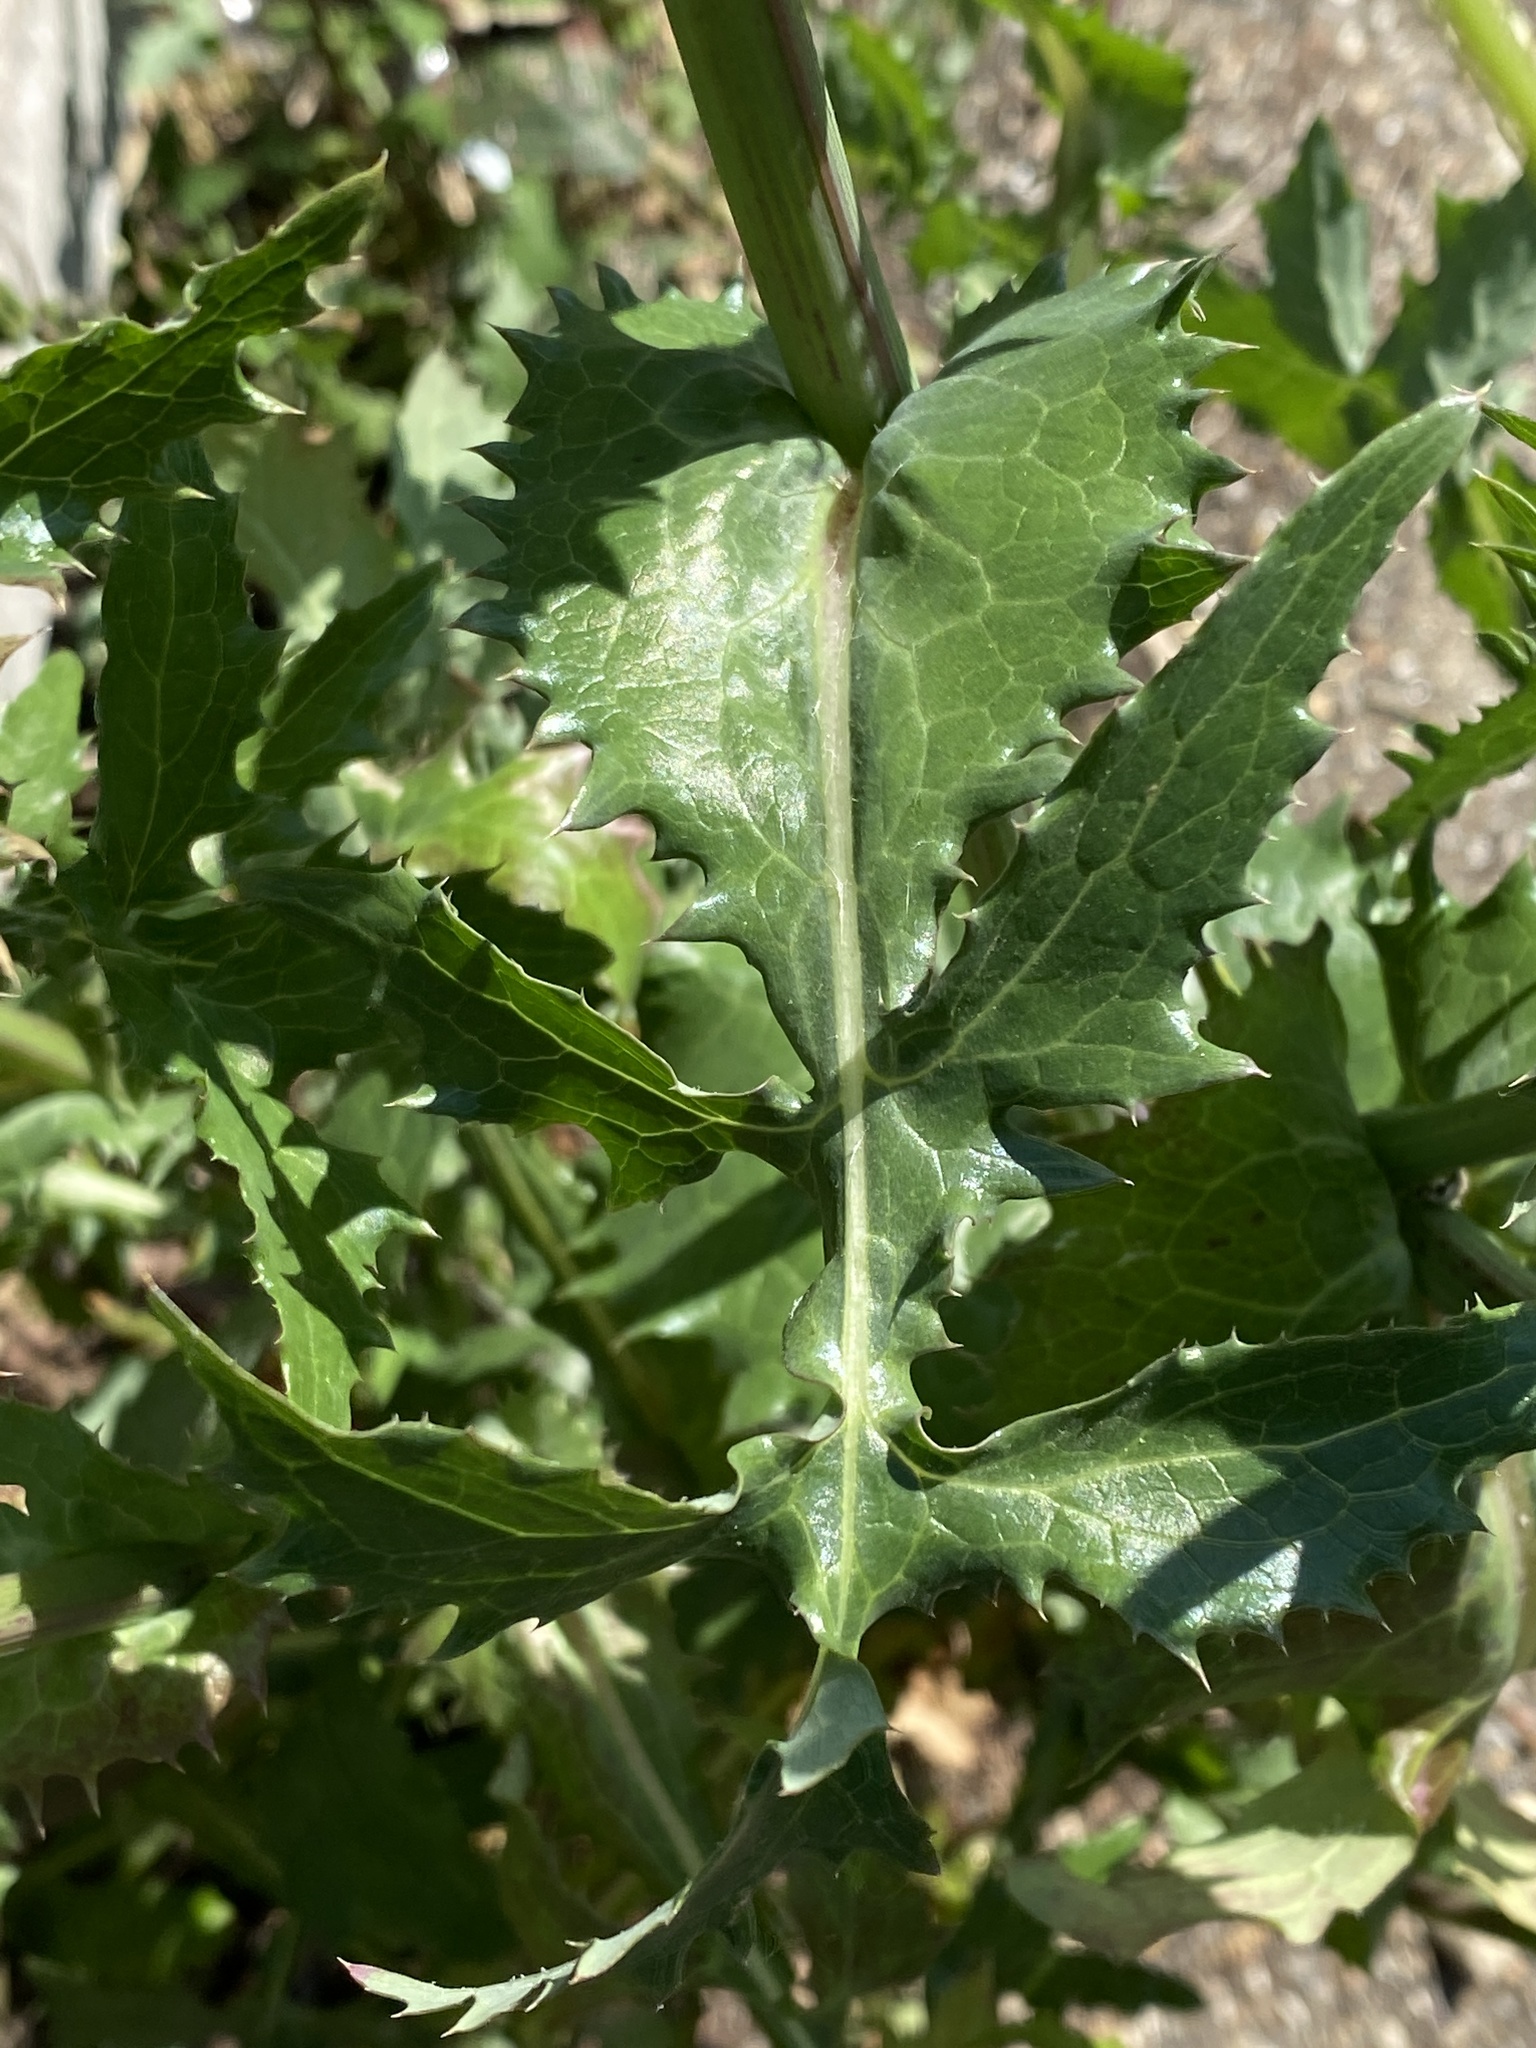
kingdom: Plantae
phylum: Tracheophyta
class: Magnoliopsida
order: Asterales
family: Asteraceae
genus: Sonchus
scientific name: Sonchus oleraceus
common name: Common sowthistle
